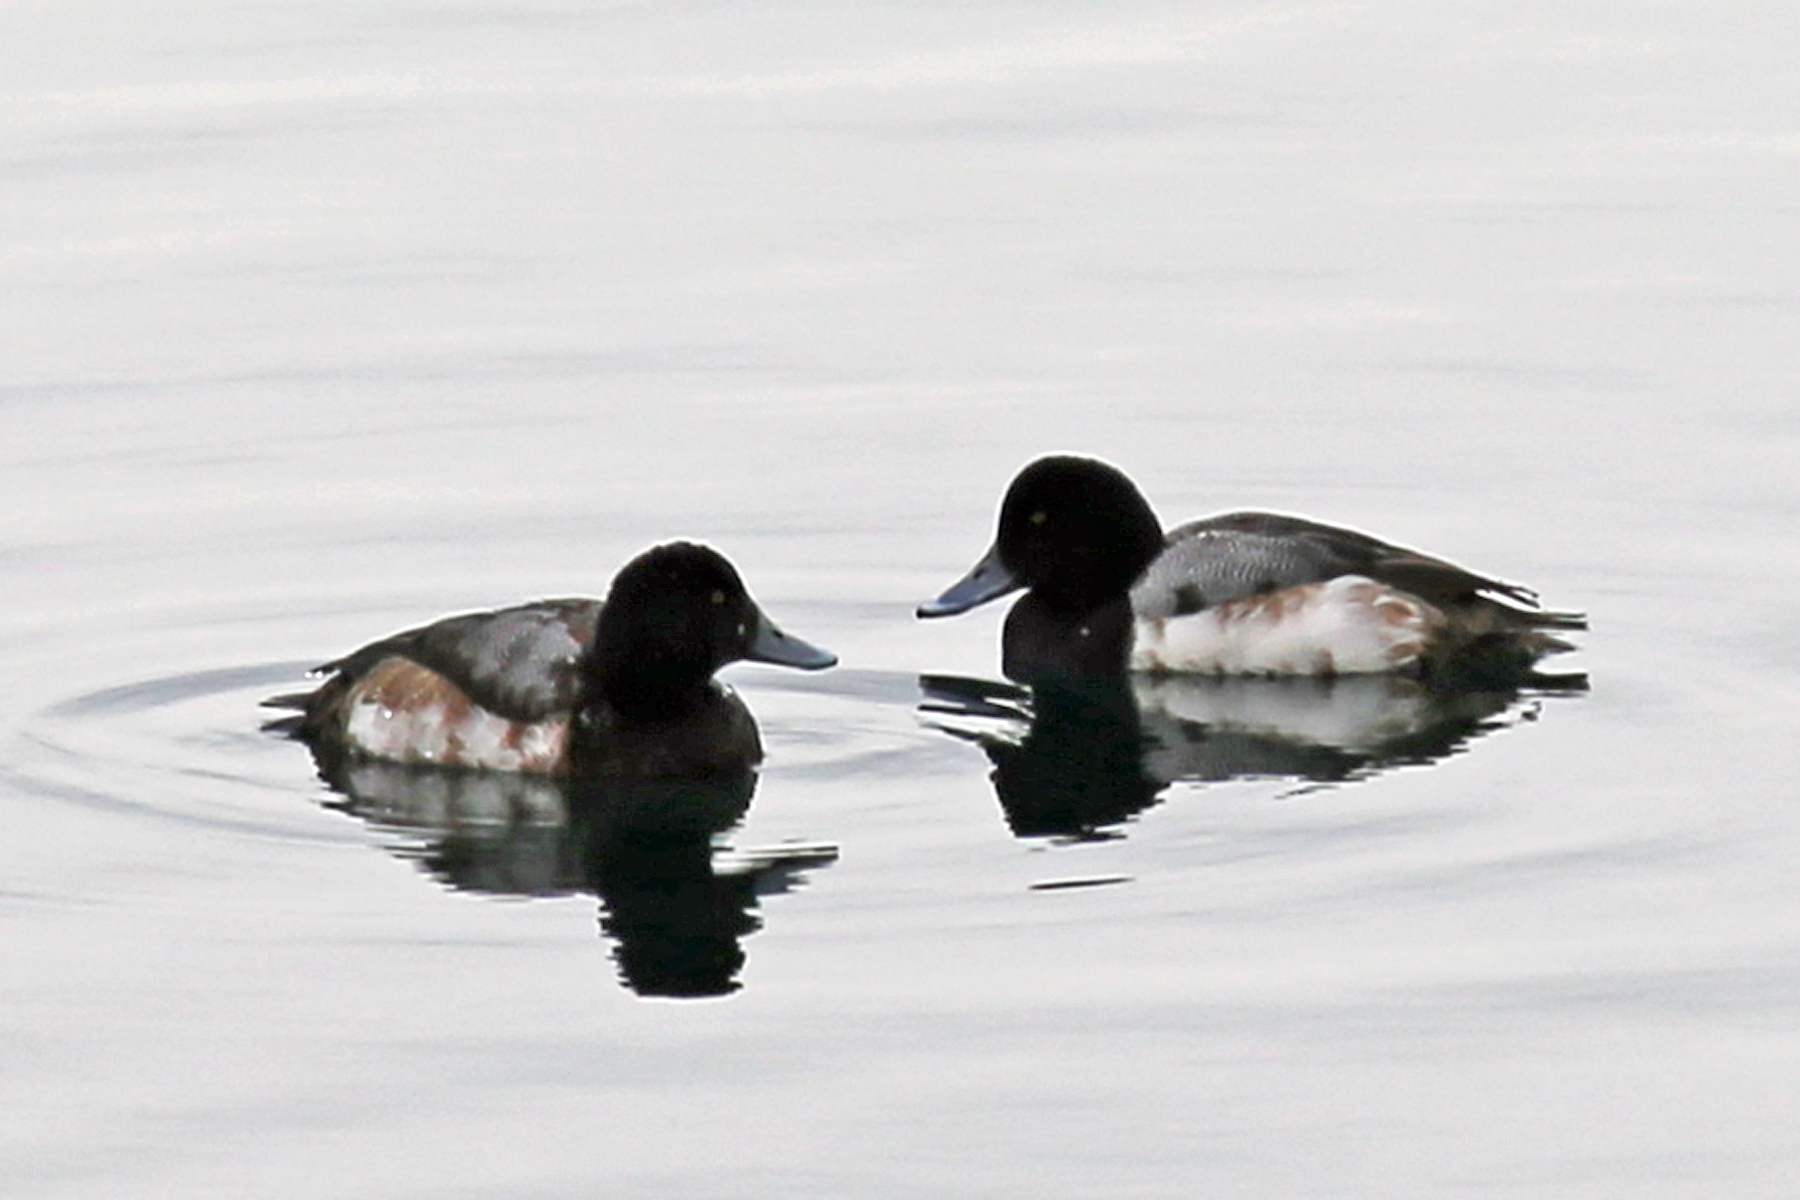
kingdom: Animalia
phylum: Chordata
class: Aves
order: Anseriformes
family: Anatidae
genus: Aythya
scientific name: Aythya marila
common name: Greater scaup
